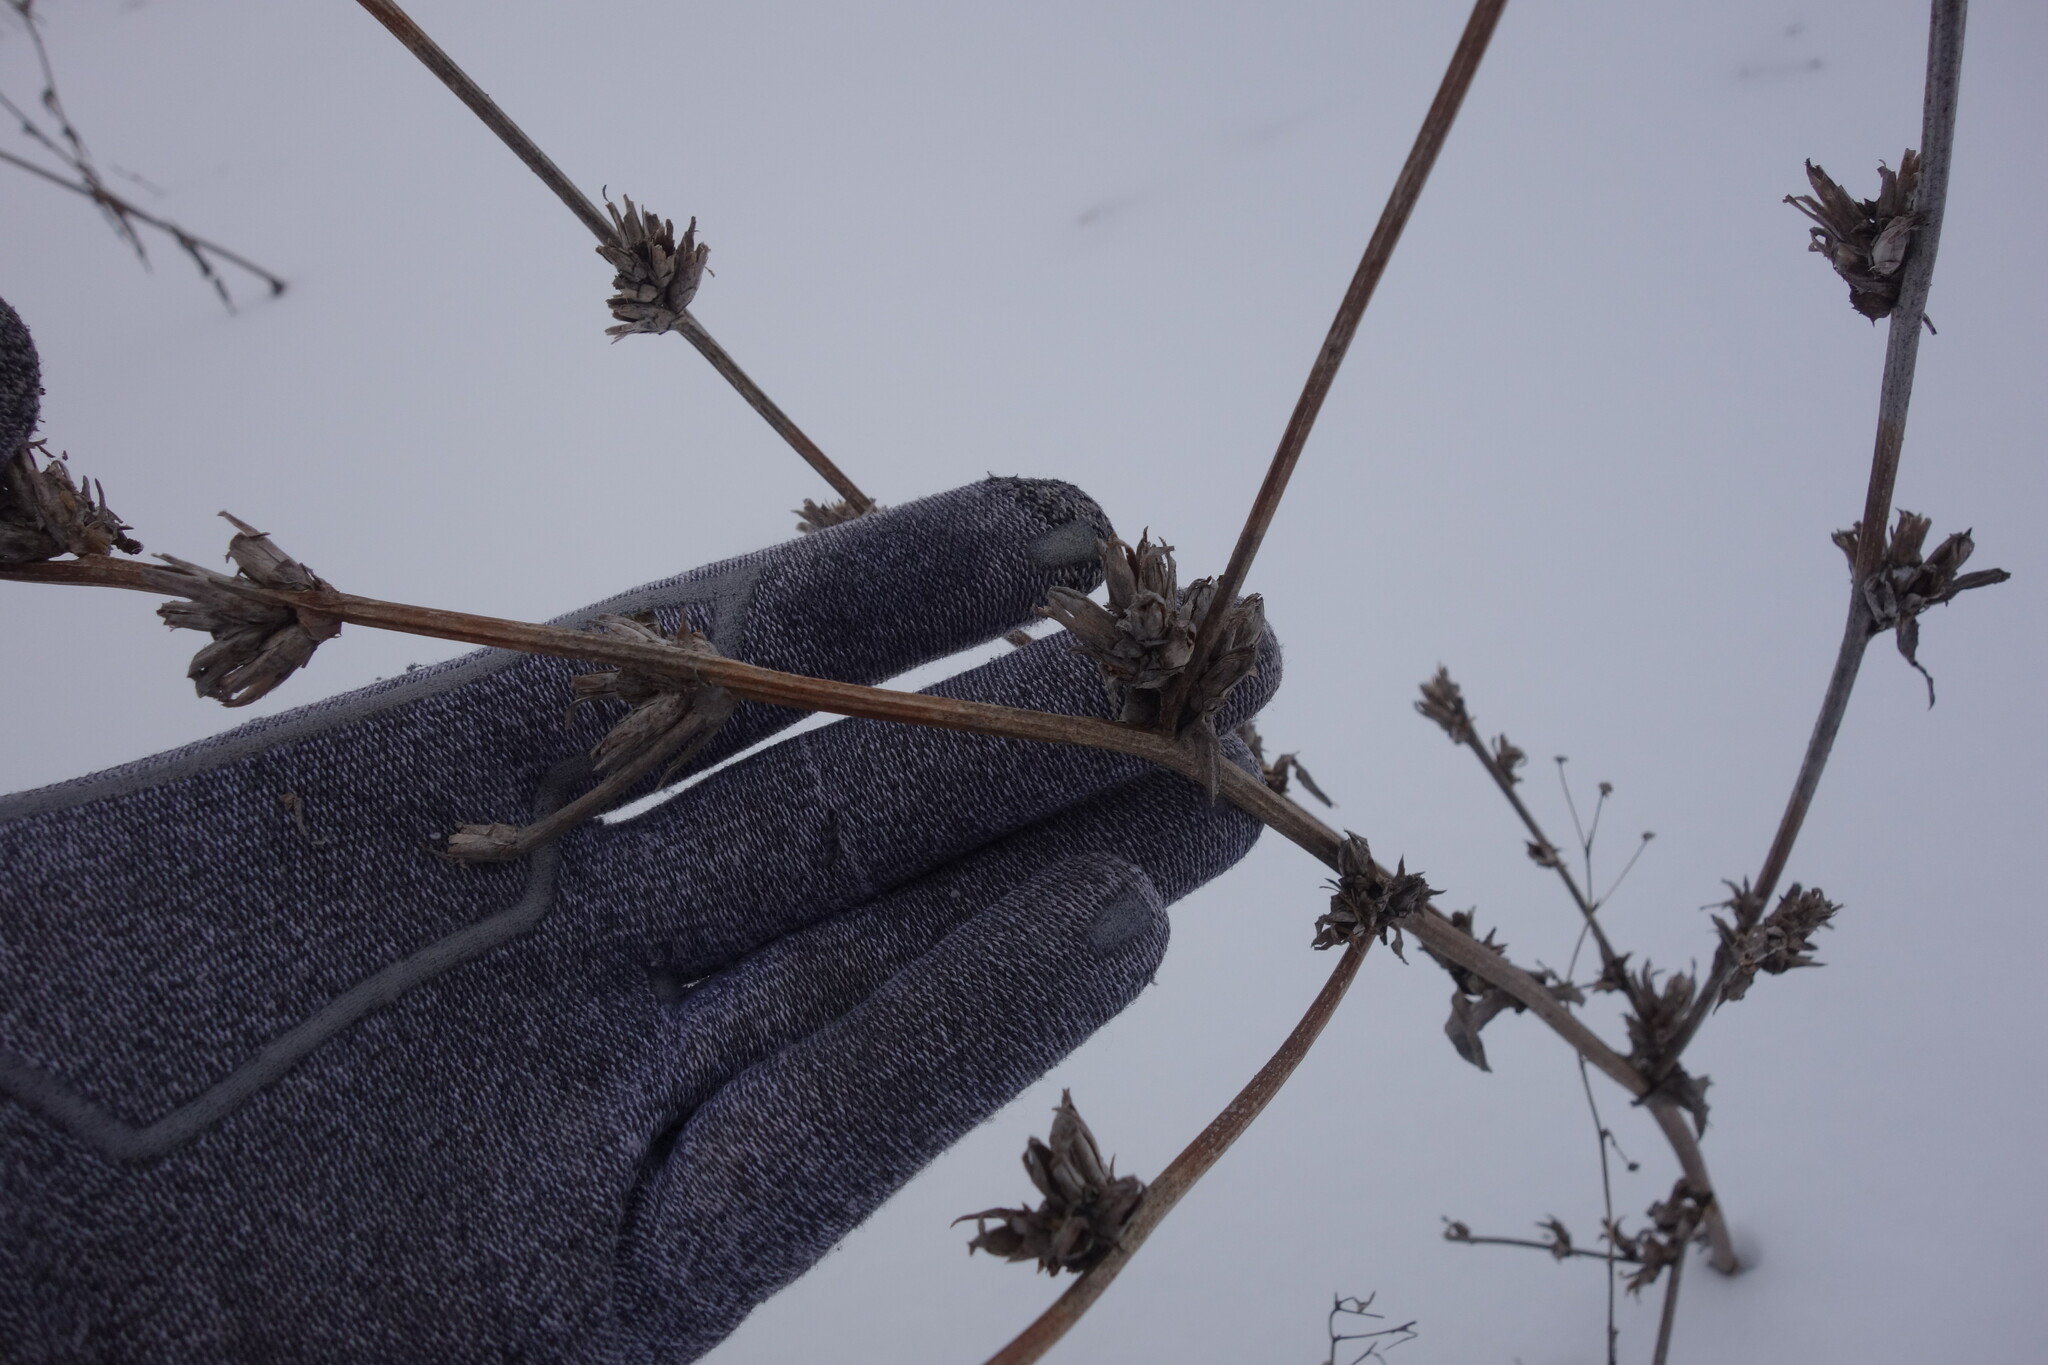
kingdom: Plantae
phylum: Tracheophyta
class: Magnoliopsida
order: Asterales
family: Asteraceae
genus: Cichorium
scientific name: Cichorium intybus
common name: Chicory
